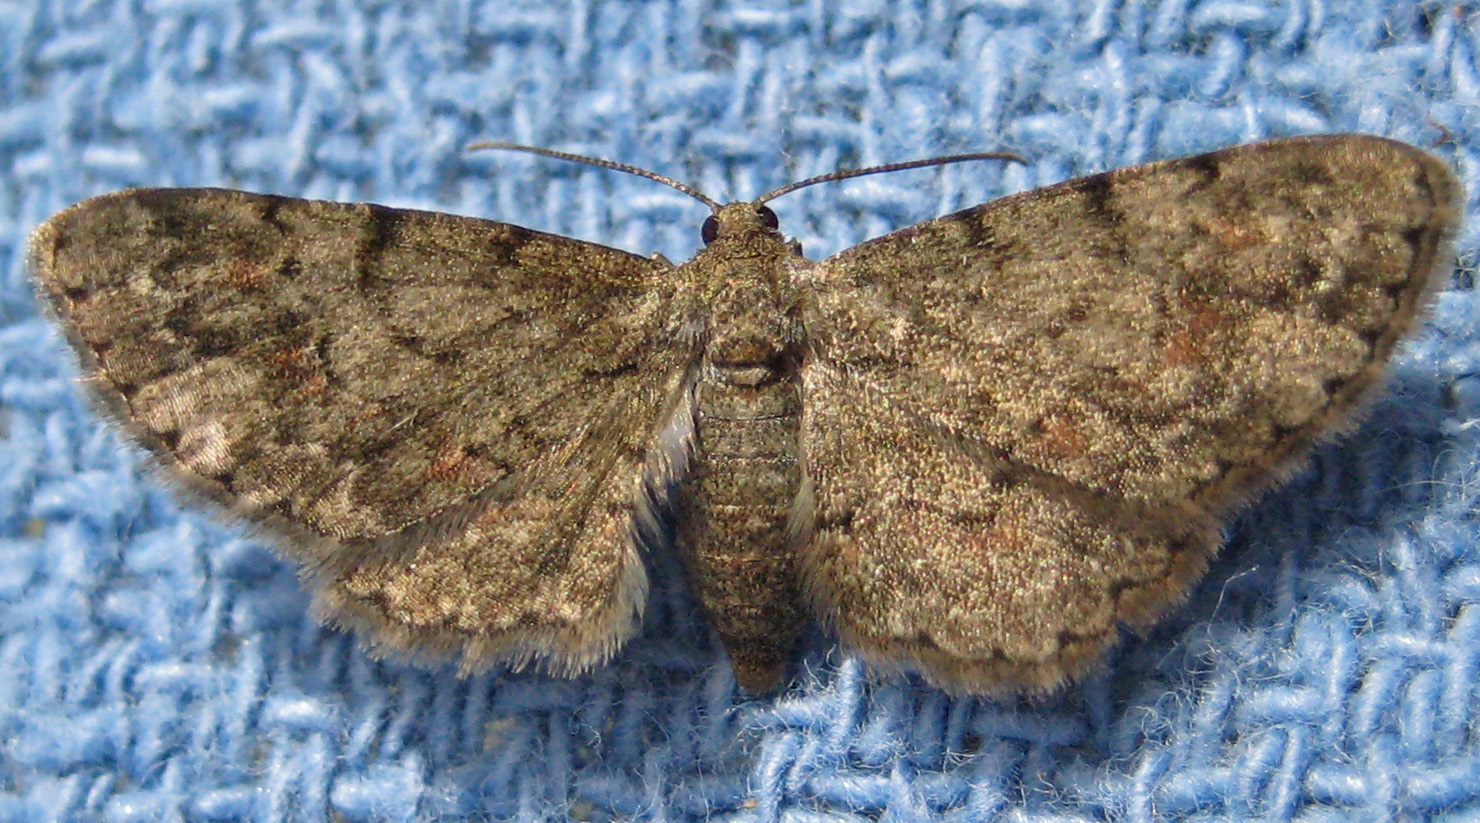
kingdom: Animalia
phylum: Arthropoda
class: Insecta
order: Lepidoptera
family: Geometridae
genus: Glenoides
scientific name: Glenoides texanaria
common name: Texas gray
